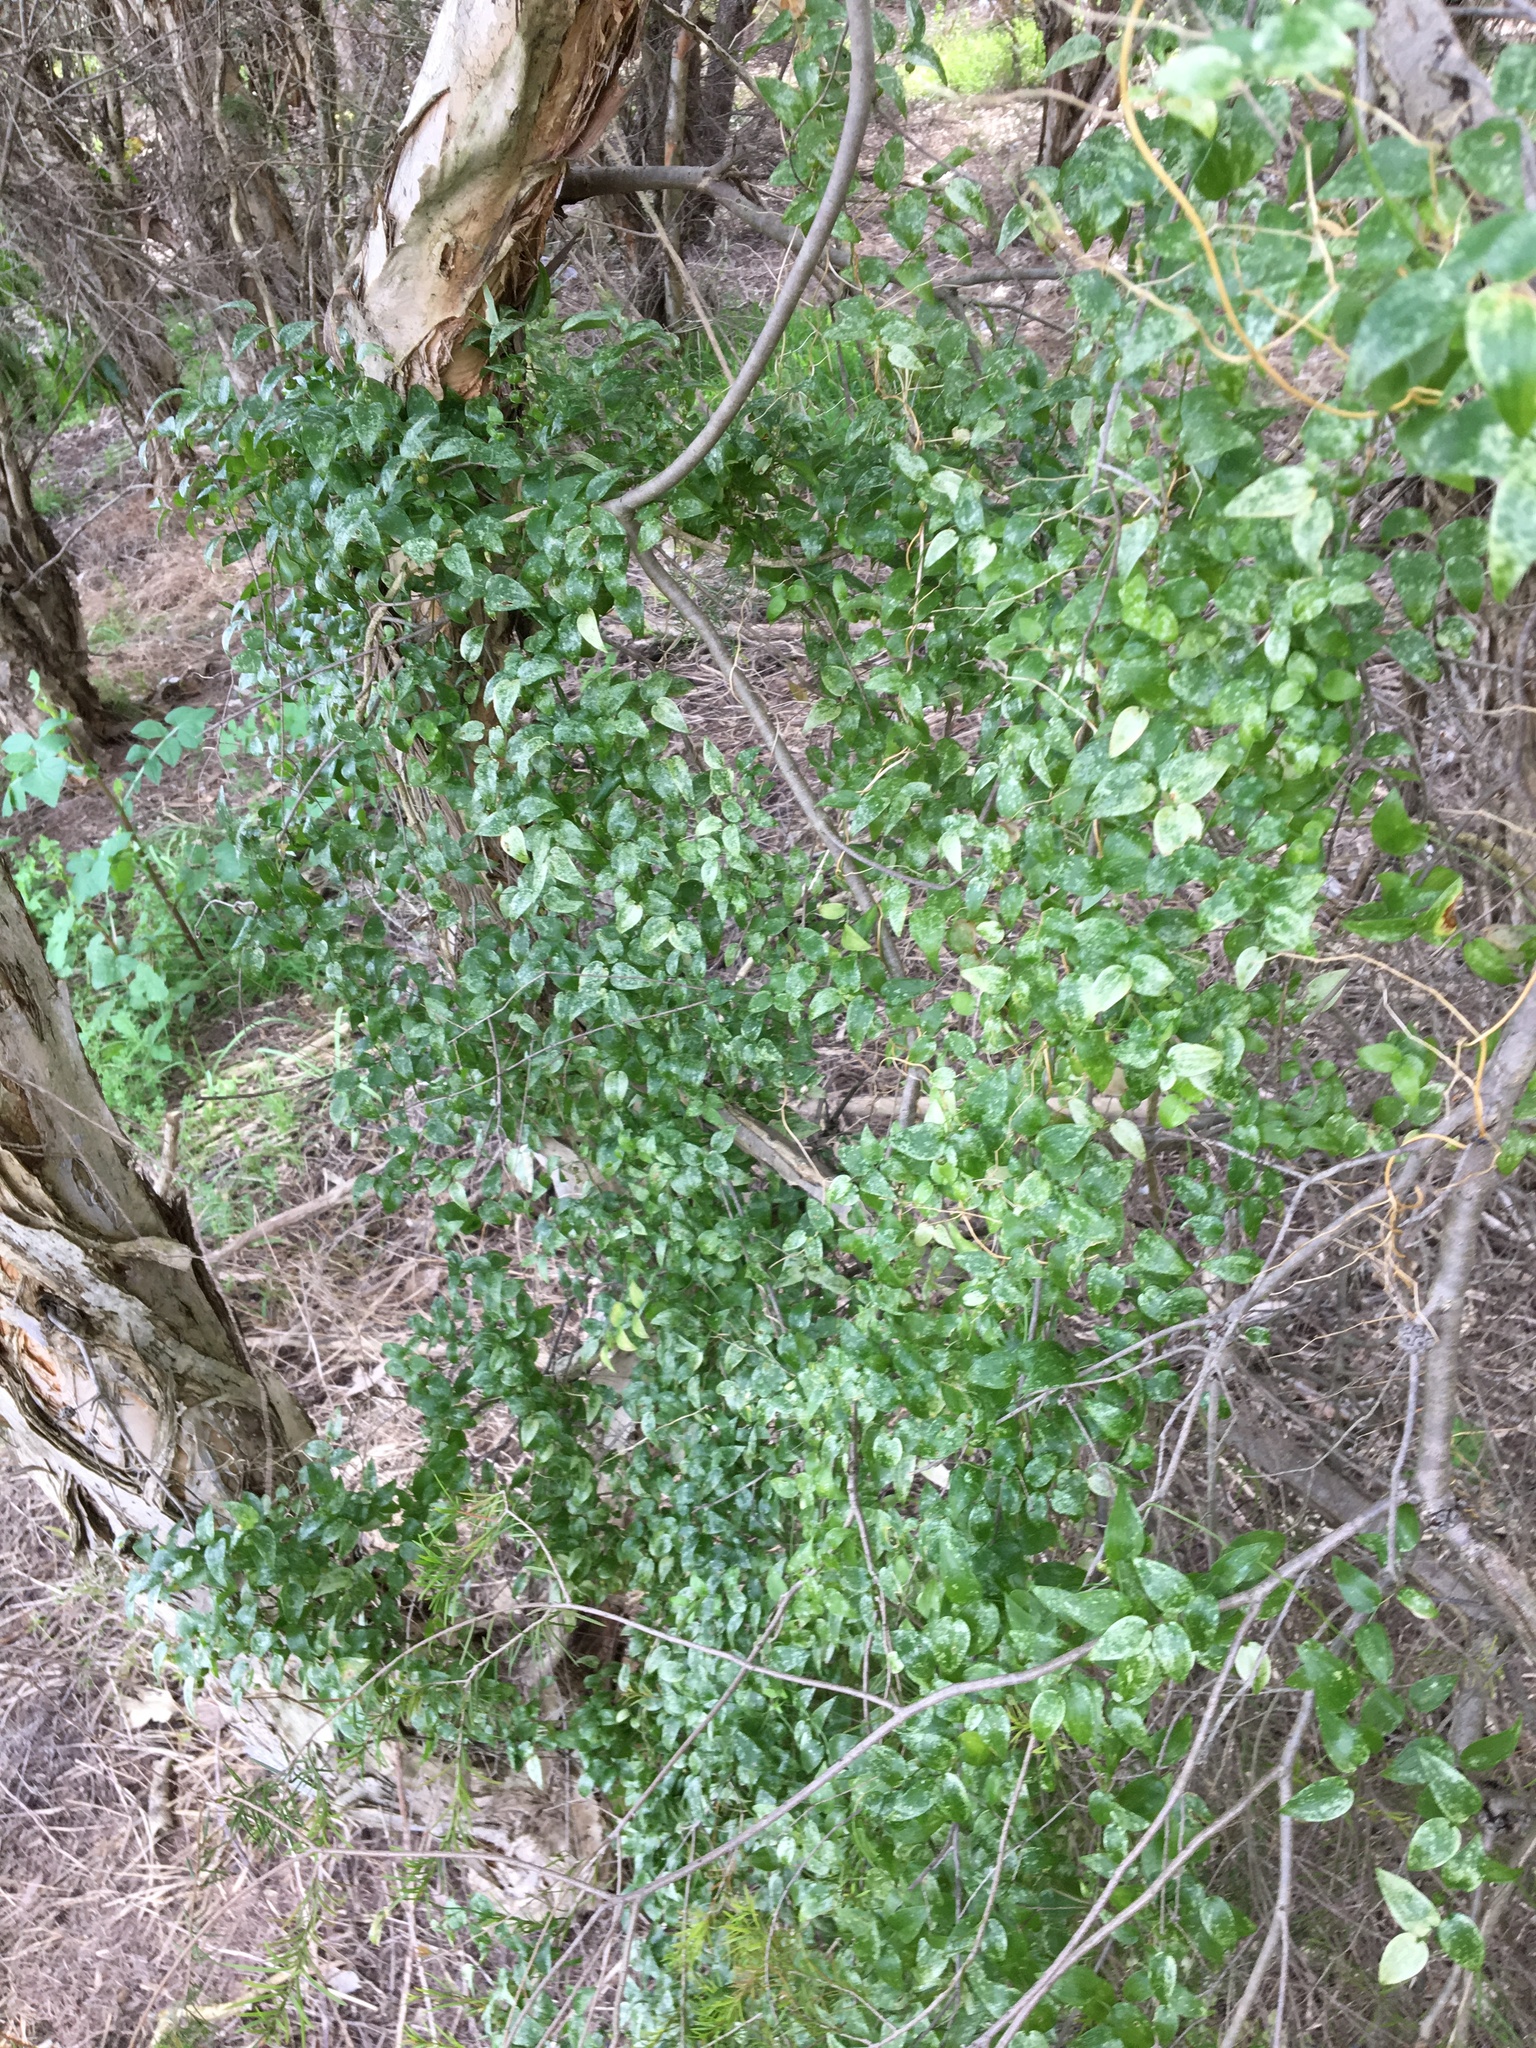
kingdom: Plantae
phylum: Tracheophyta
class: Liliopsida
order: Asparagales
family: Asparagaceae
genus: Asparagus
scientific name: Asparagus asparagoides
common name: African asparagus fern
